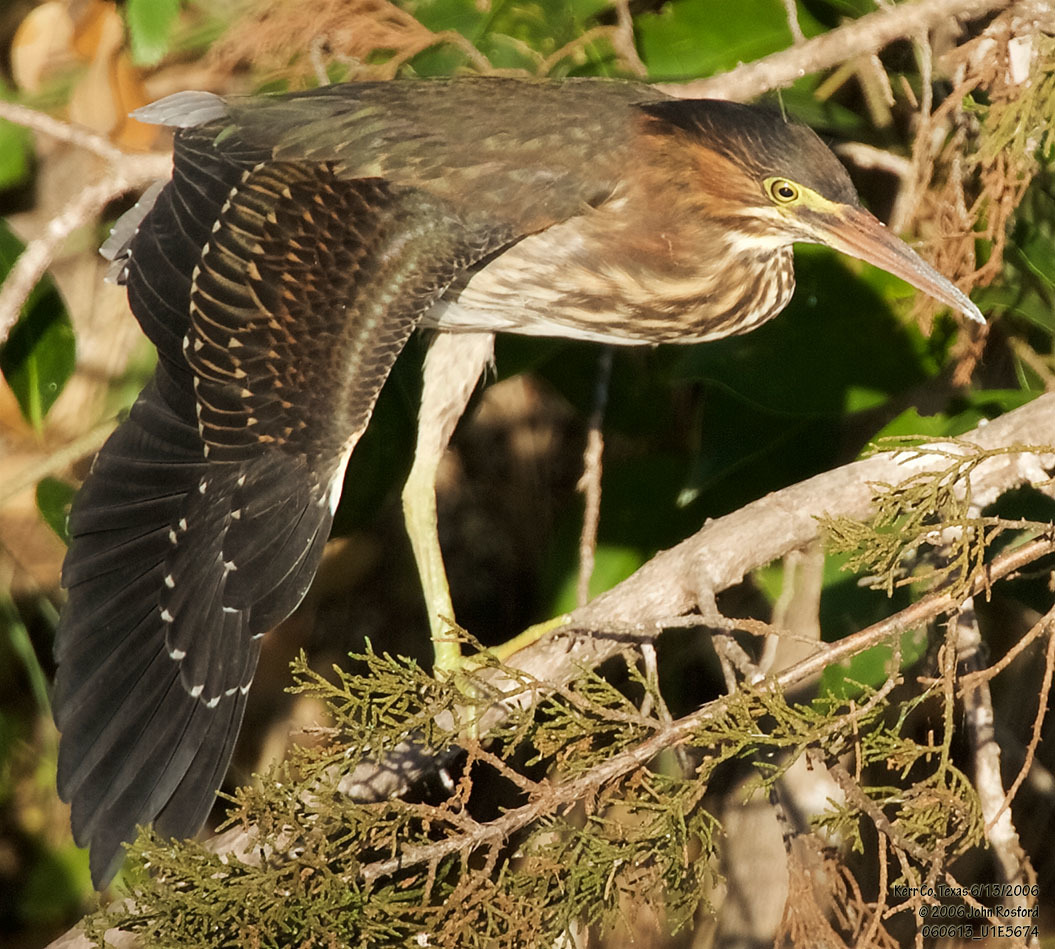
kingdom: Animalia
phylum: Chordata
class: Aves
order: Pelecaniformes
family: Ardeidae
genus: Butorides
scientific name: Butorides virescens
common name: Green heron
